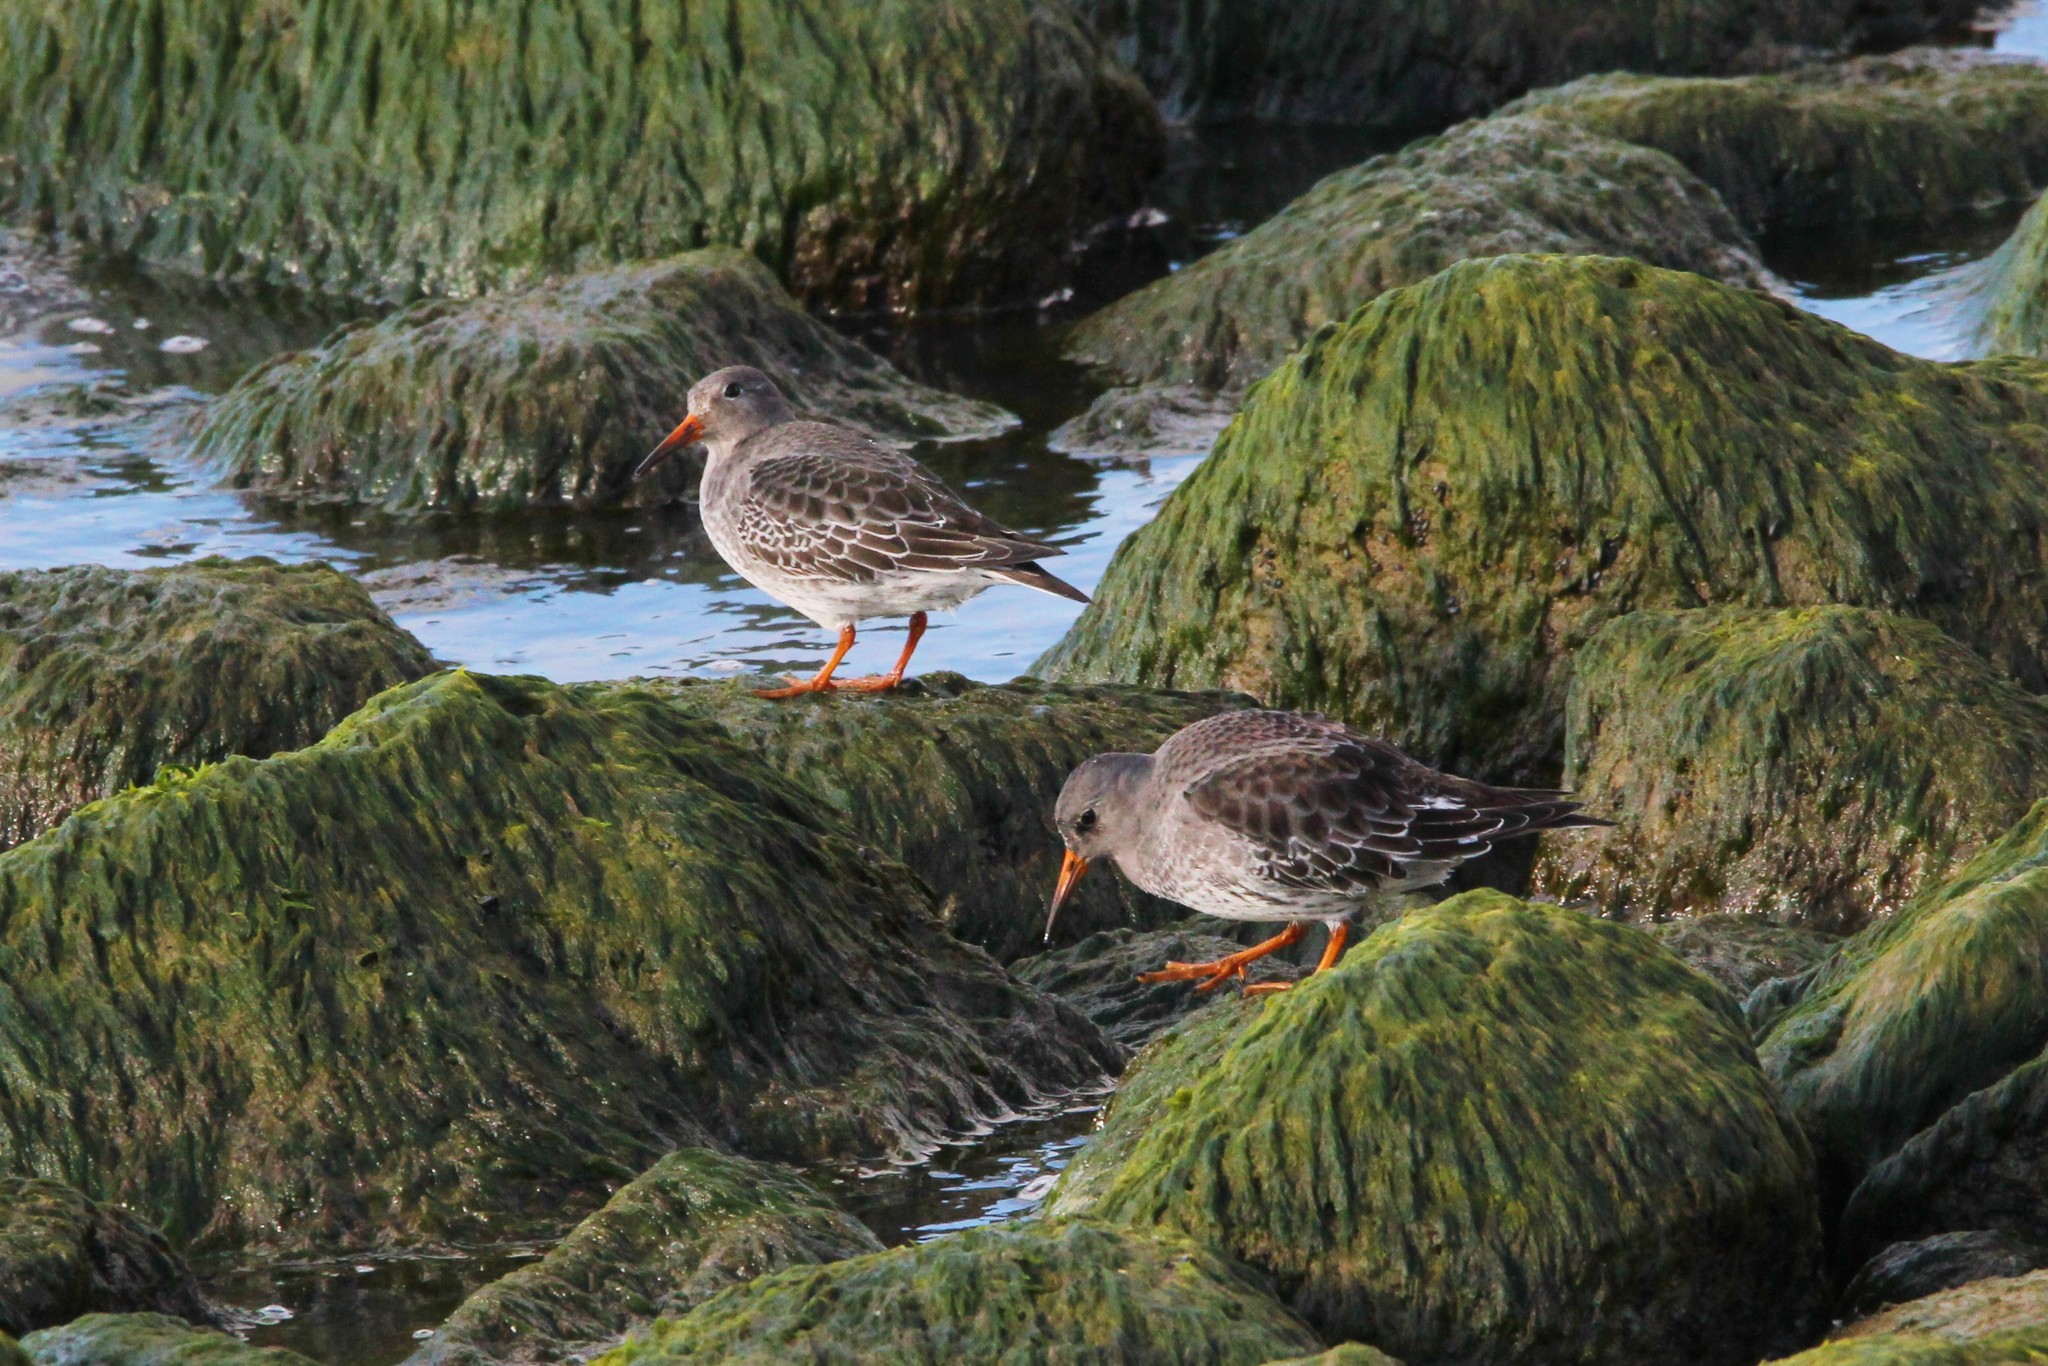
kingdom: Animalia
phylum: Chordata
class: Aves
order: Charadriiformes
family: Scolopacidae
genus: Calidris
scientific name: Calidris maritima
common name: Purple sandpiper
